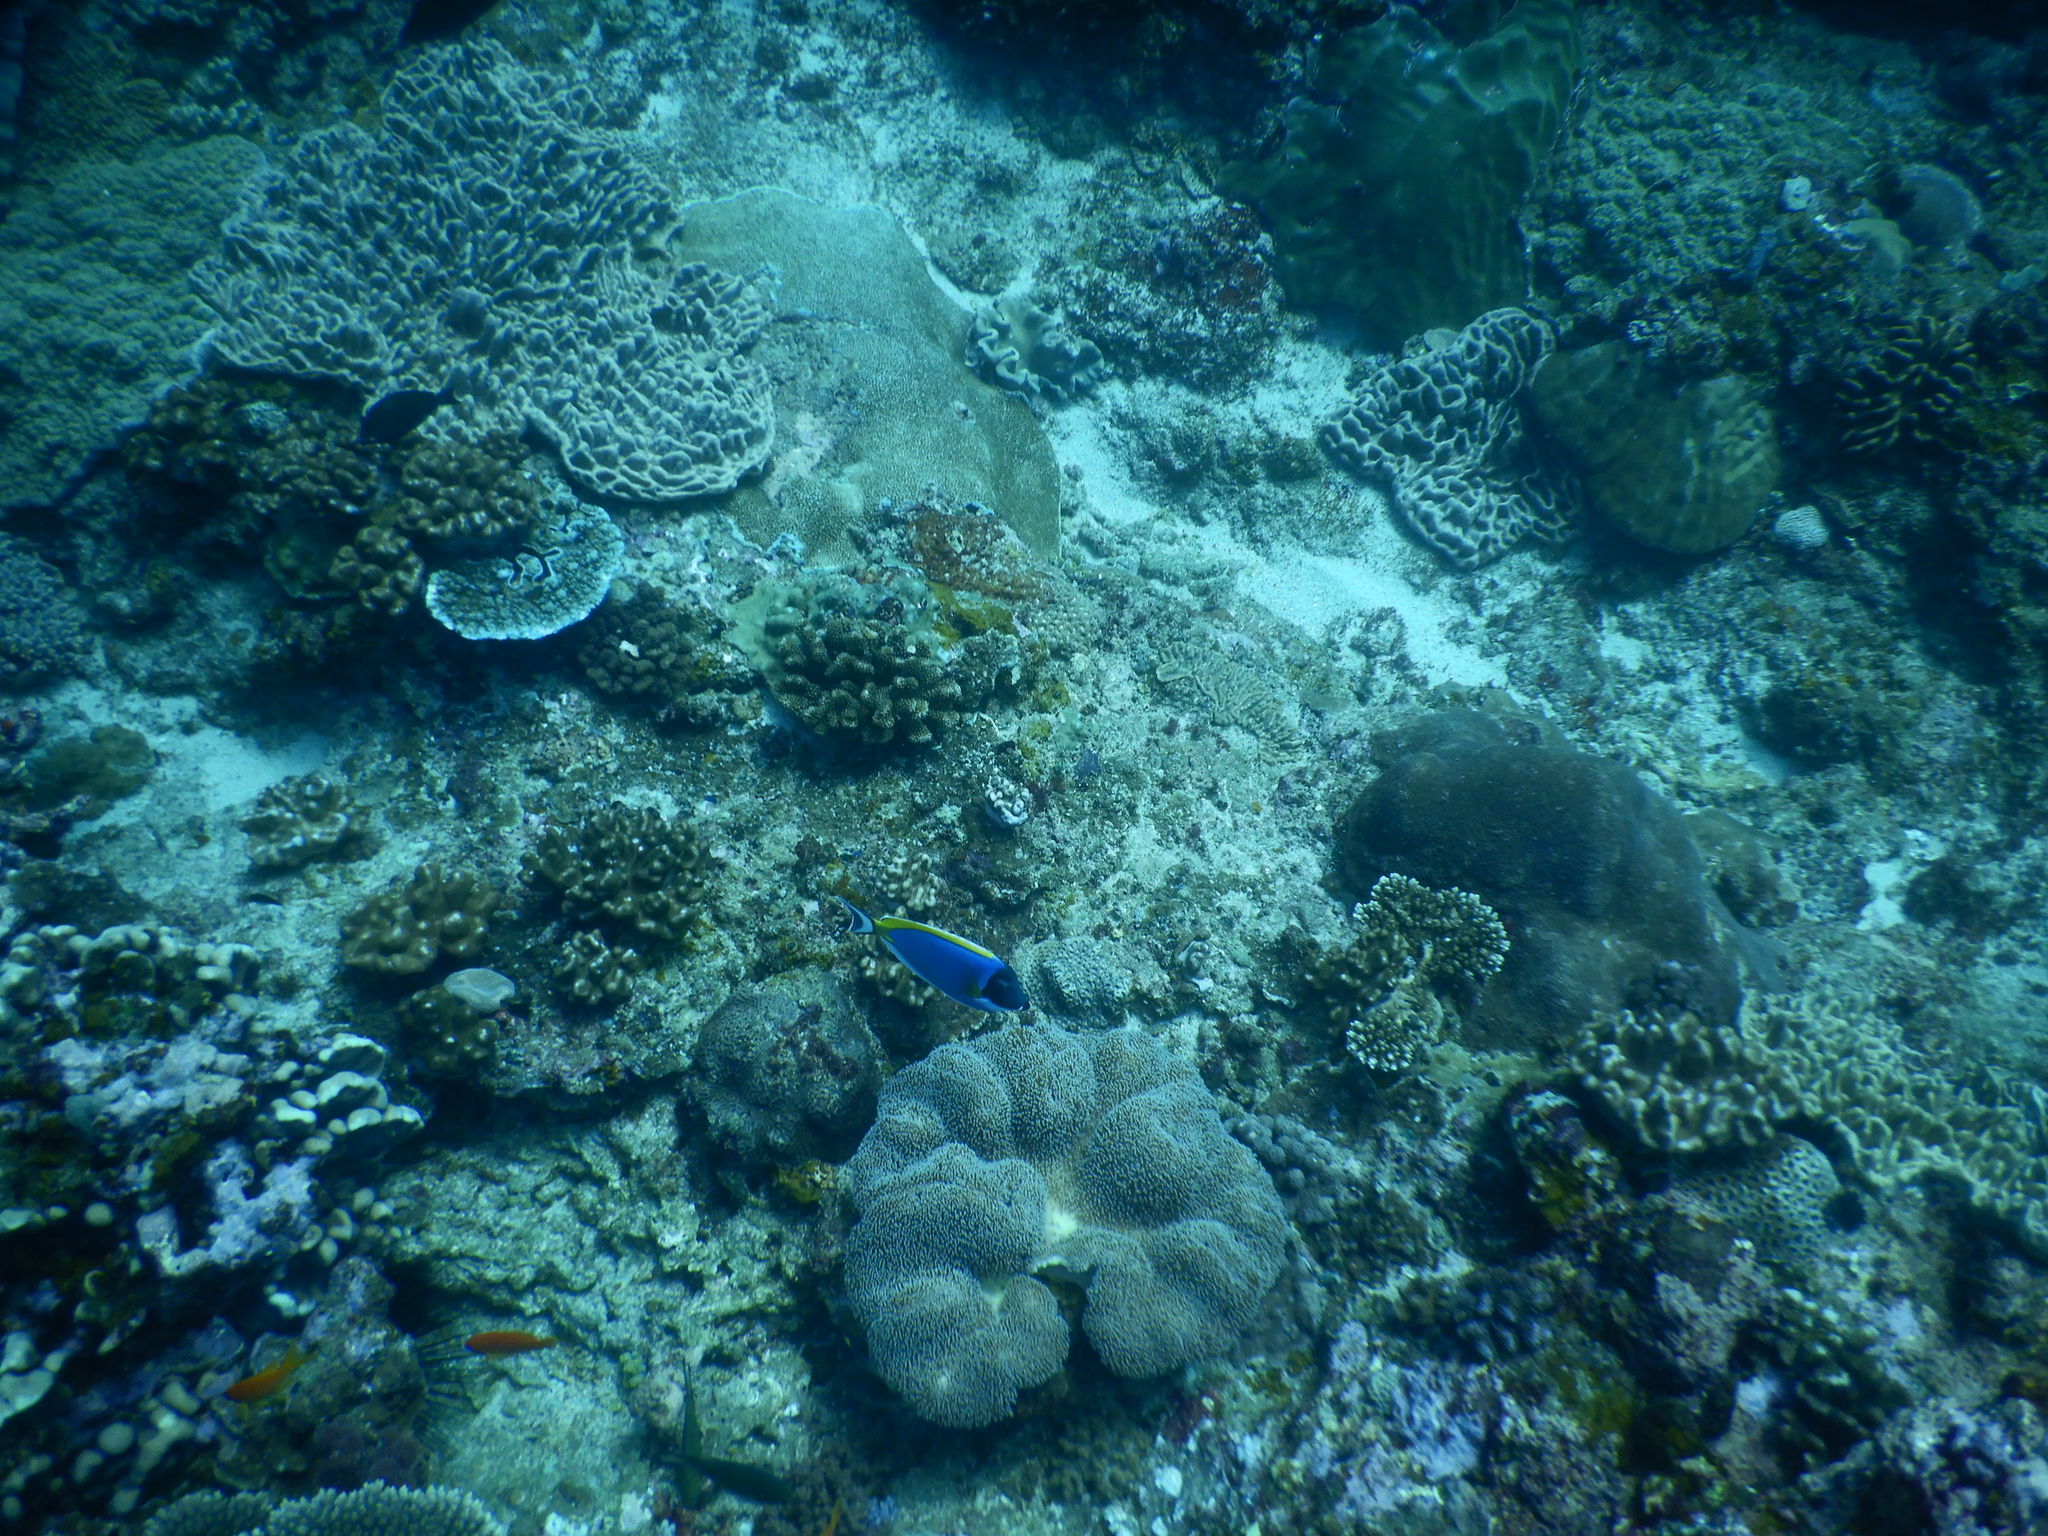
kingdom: Animalia
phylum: Chordata
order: Perciformes
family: Acanthuridae
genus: Acanthurus
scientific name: Acanthurus leucosternon
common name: Blue surgeonfish
